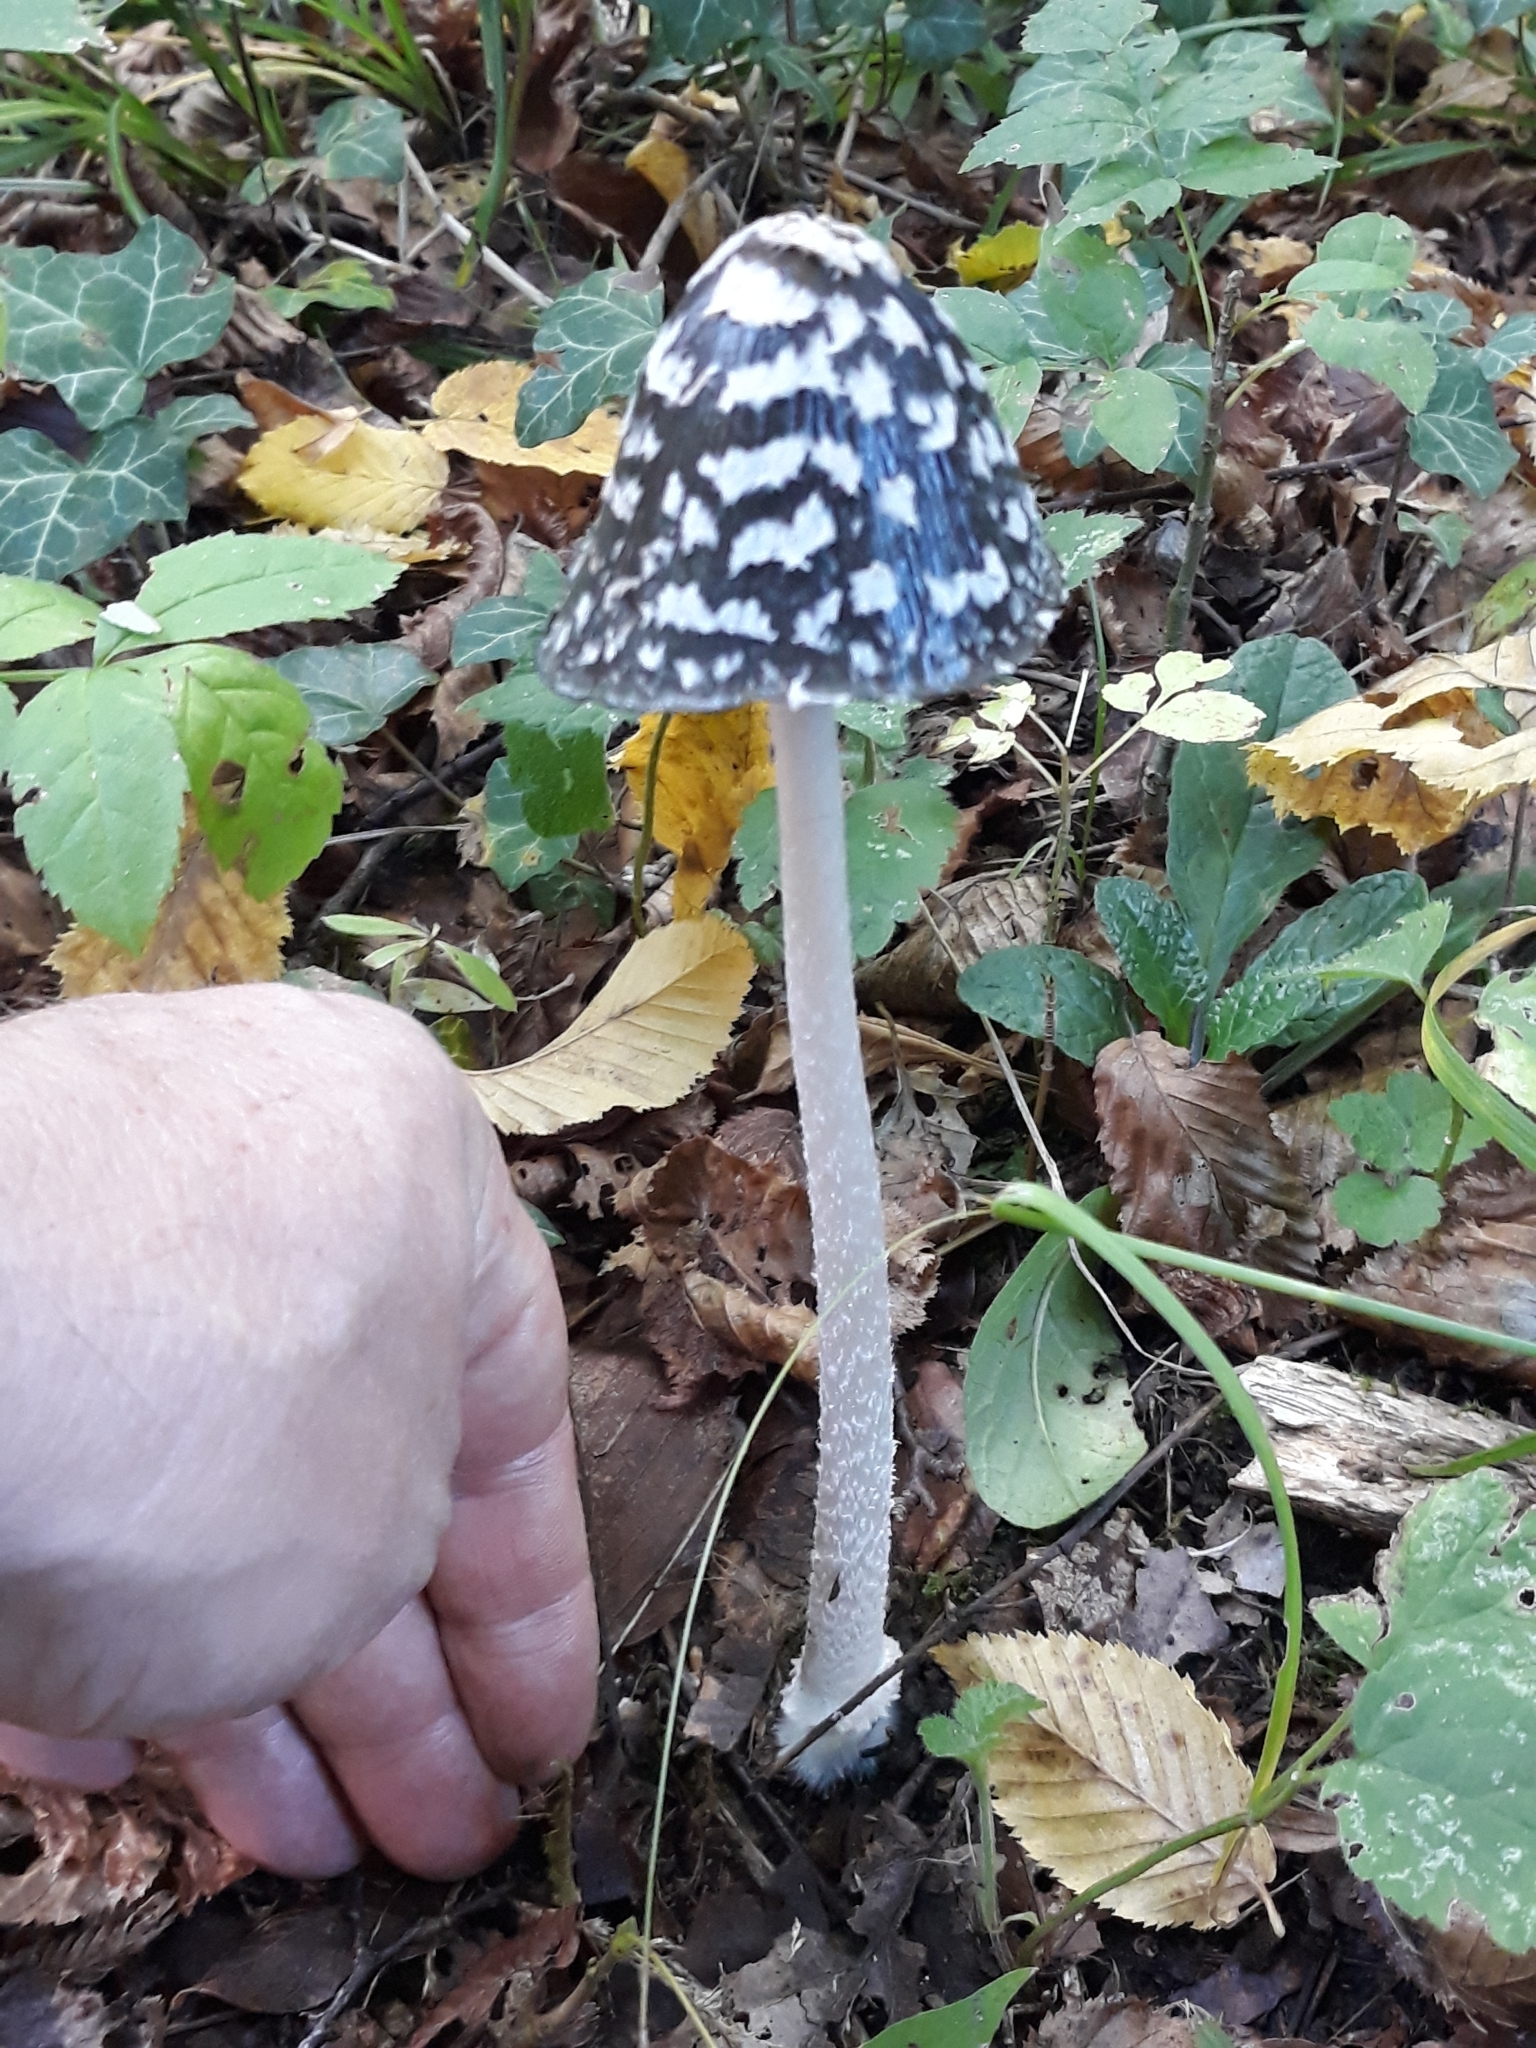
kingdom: Fungi
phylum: Basidiomycota
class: Agaricomycetes
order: Agaricales
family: Psathyrellaceae
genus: Coprinopsis
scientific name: Coprinopsis picacea
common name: Magpie inkcap
